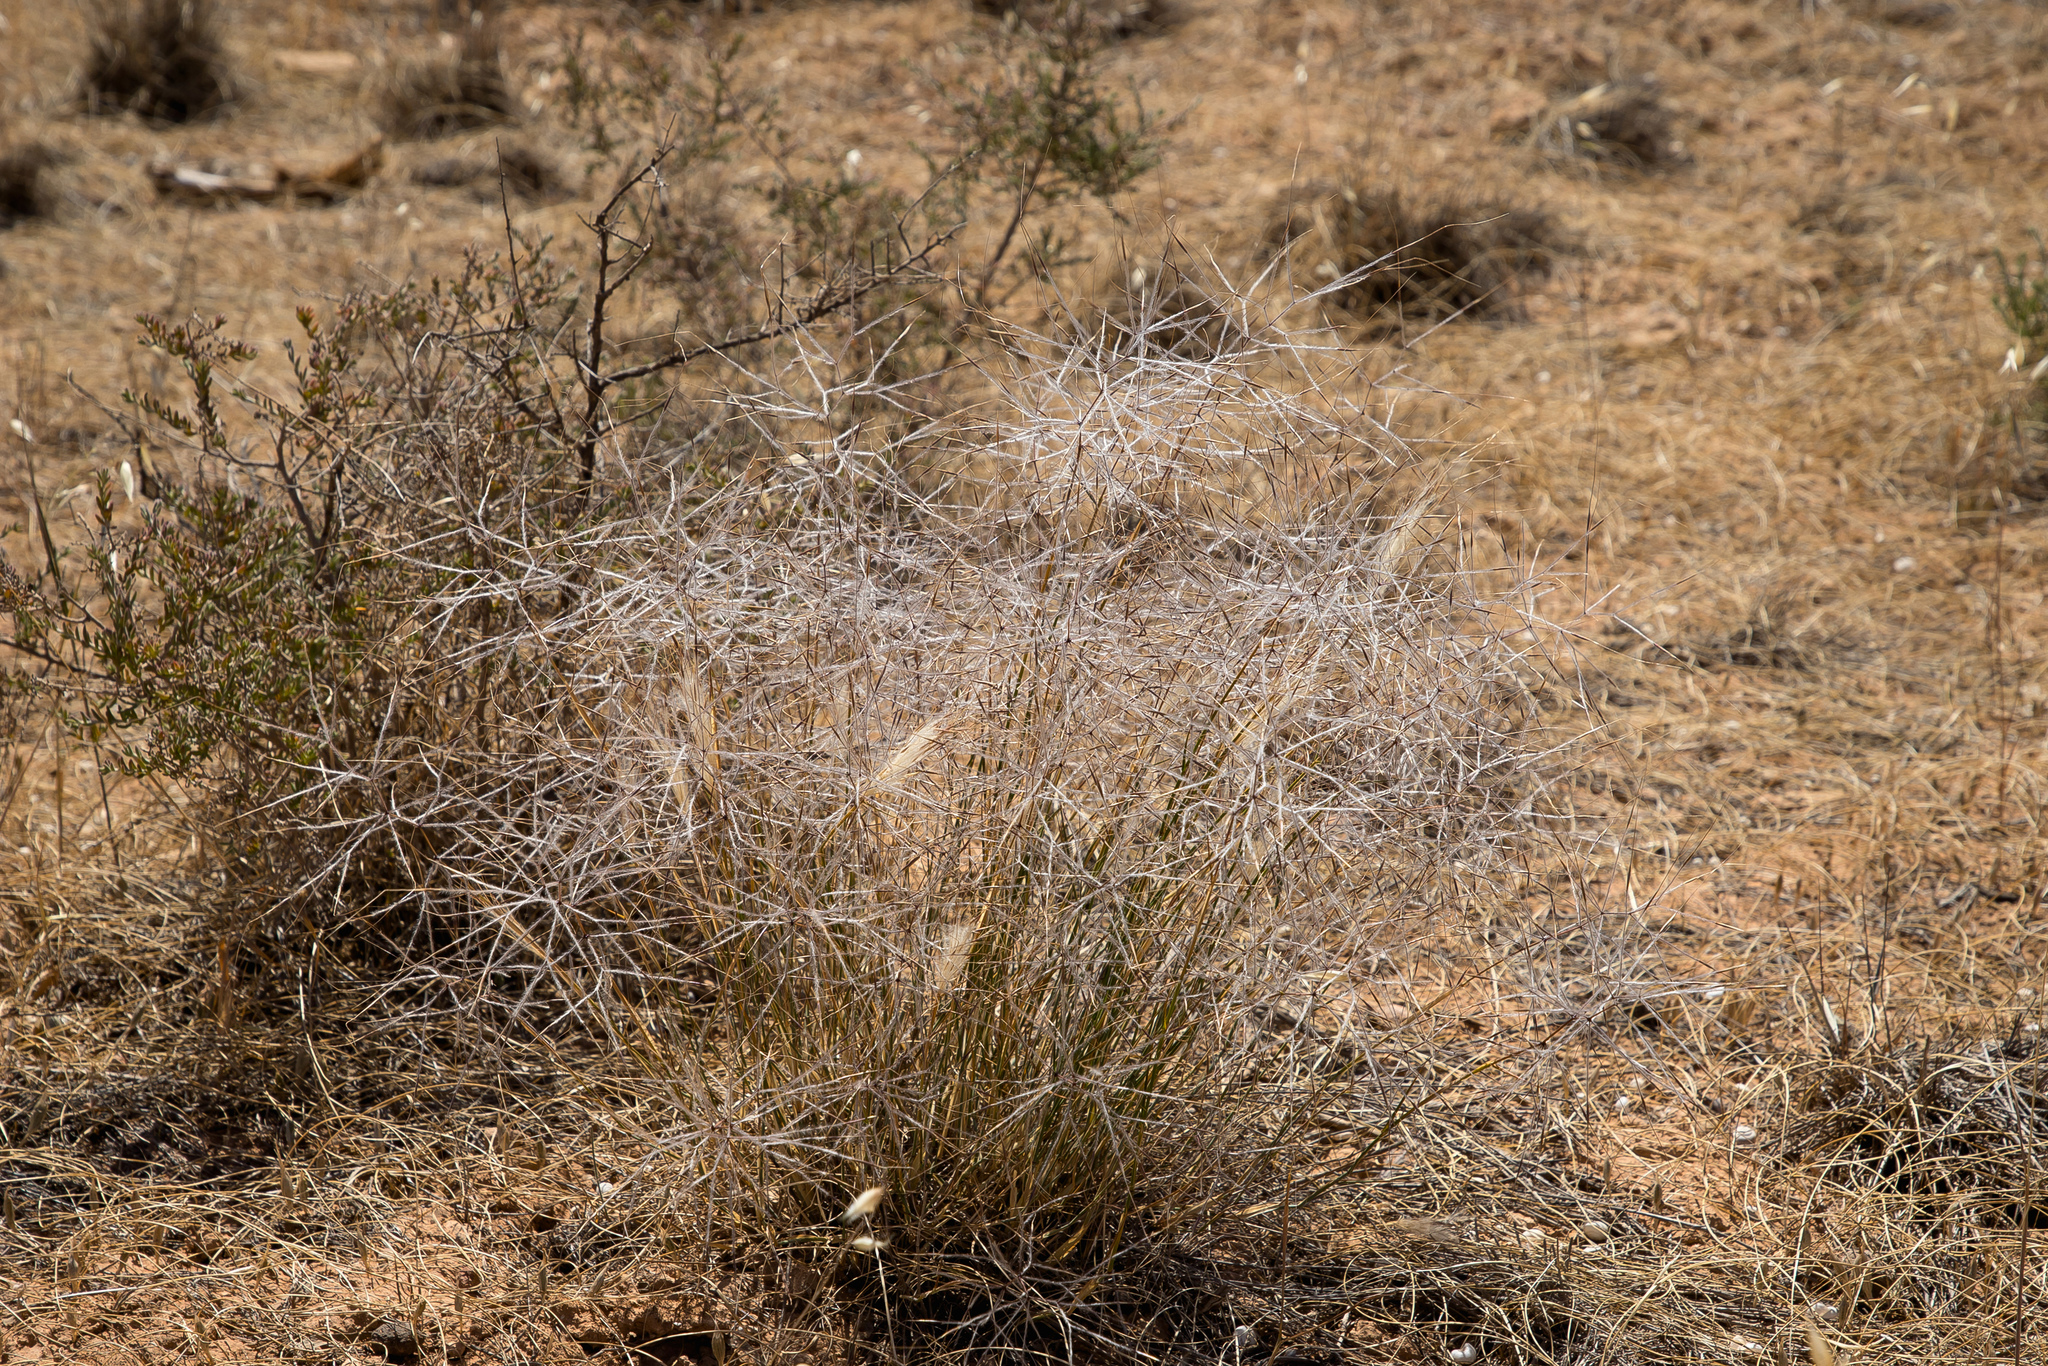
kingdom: Plantae
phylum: Tracheophyta
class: Liliopsida
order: Poales
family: Poaceae
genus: Austrostipa
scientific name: Austrostipa elegantissima
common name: Feather spear grass
